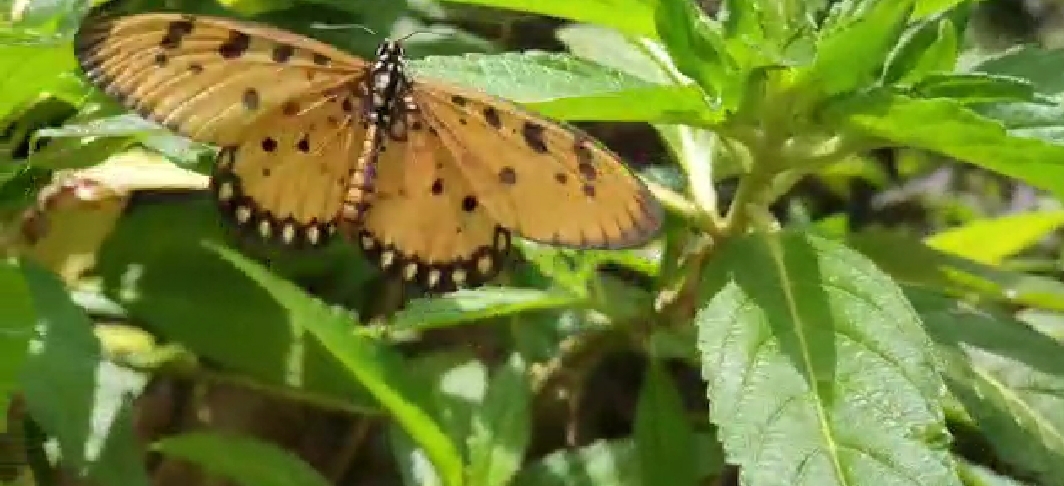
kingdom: Animalia
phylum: Arthropoda
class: Insecta
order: Lepidoptera
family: Nymphalidae
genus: Acraea
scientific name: Acraea terpsicore
